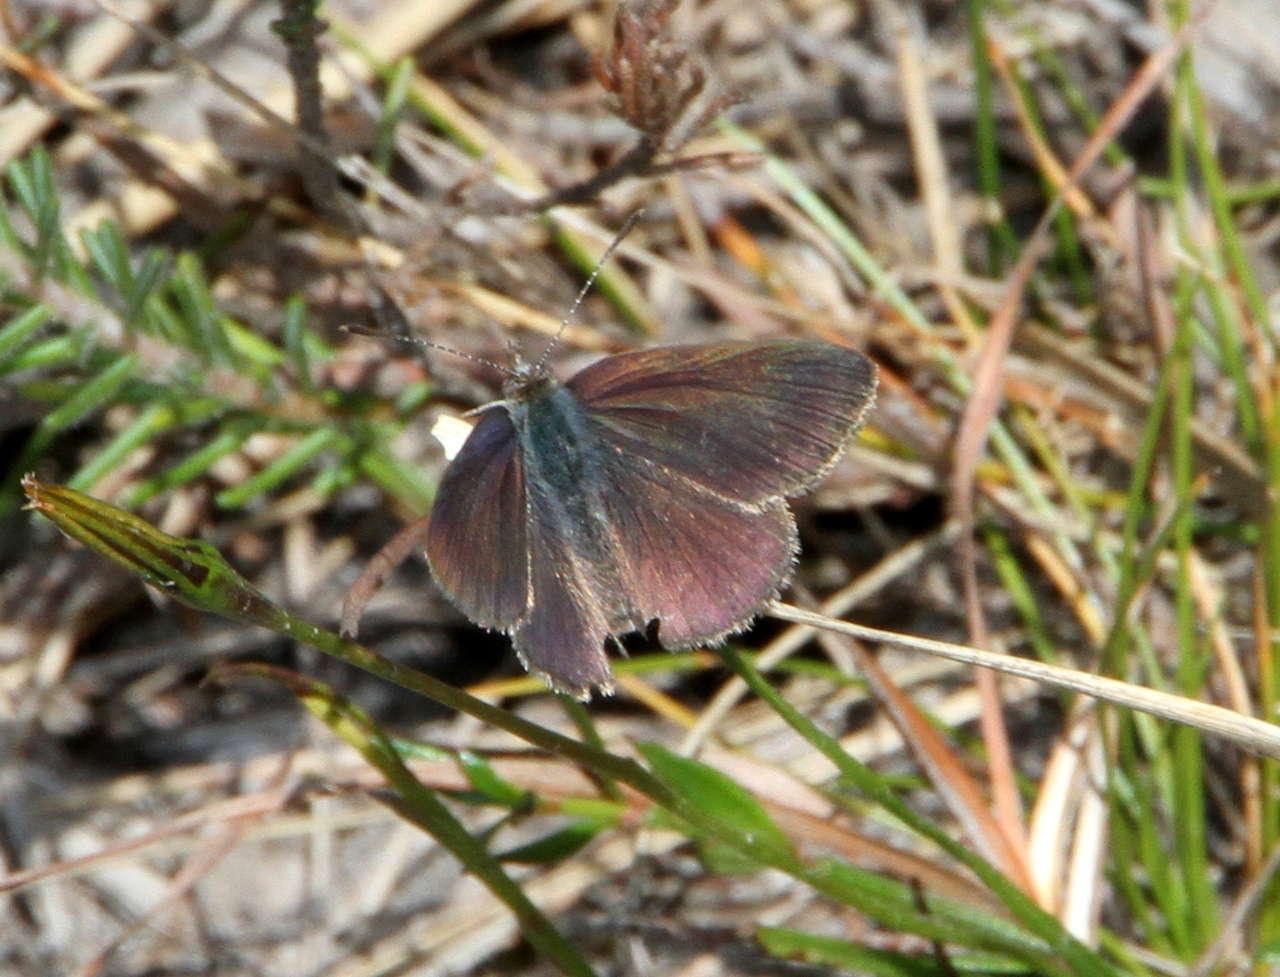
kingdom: Animalia
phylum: Arthropoda
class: Insecta
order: Lepidoptera
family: Lycaenidae
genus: Candalides
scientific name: Candalides
